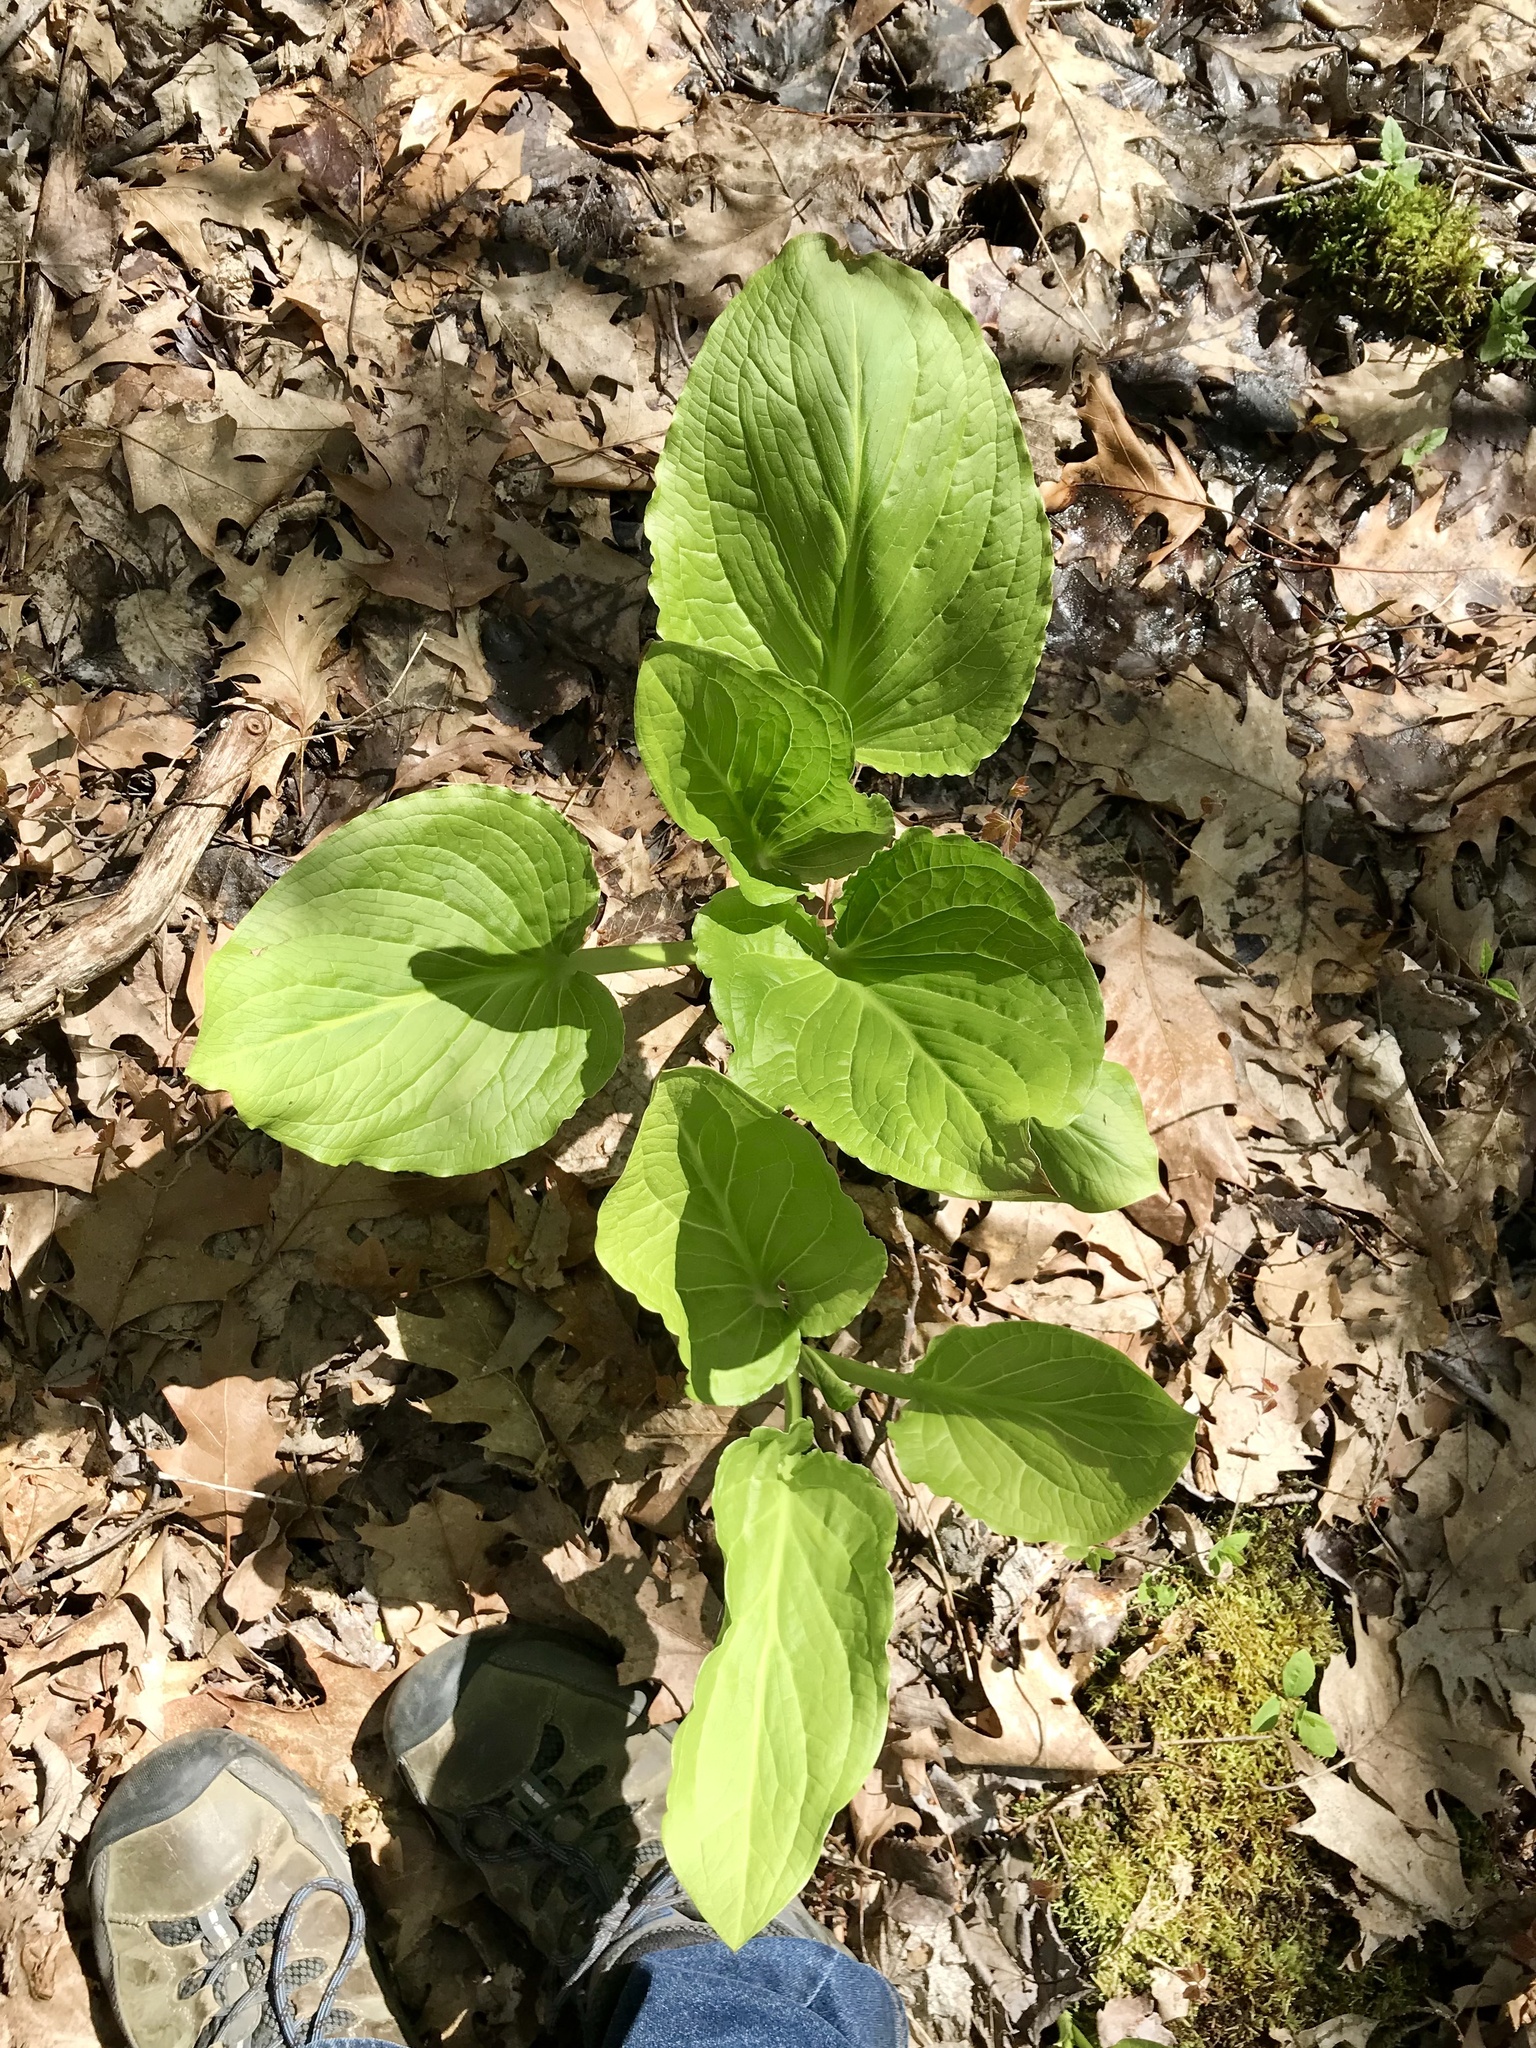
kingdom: Plantae
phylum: Tracheophyta
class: Liliopsida
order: Alismatales
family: Araceae
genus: Symplocarpus
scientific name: Symplocarpus foetidus
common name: Eastern skunk cabbage
